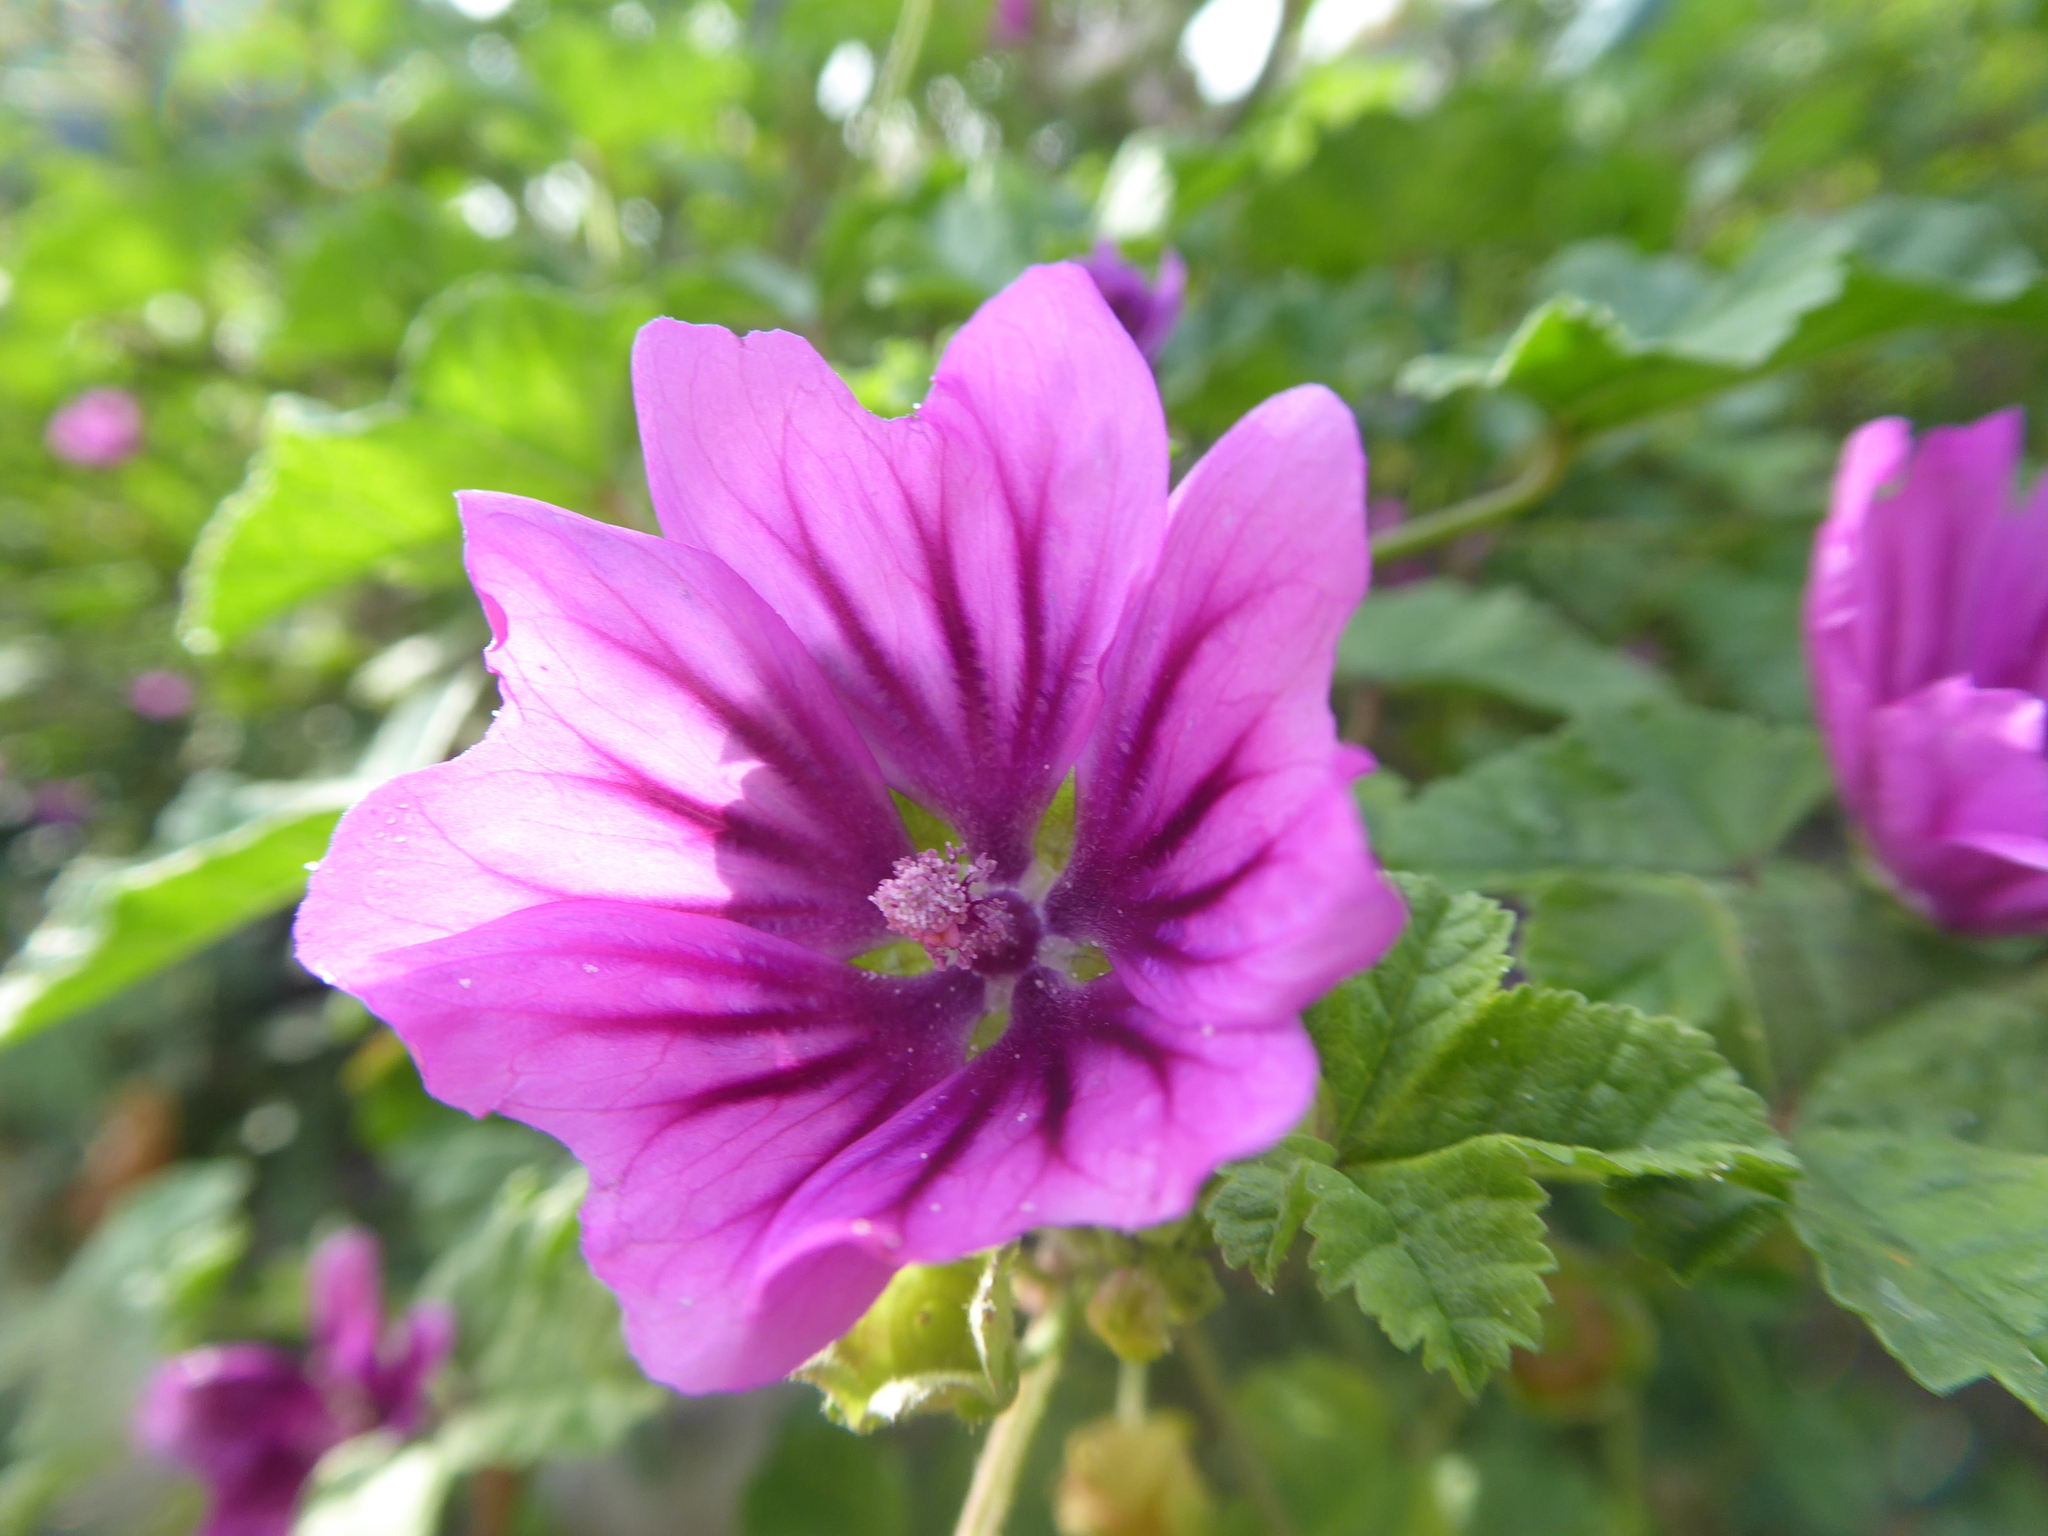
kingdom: Plantae
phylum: Tracheophyta
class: Magnoliopsida
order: Malvales
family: Malvaceae
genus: Malva
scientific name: Malva sylvestris
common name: Common mallow
